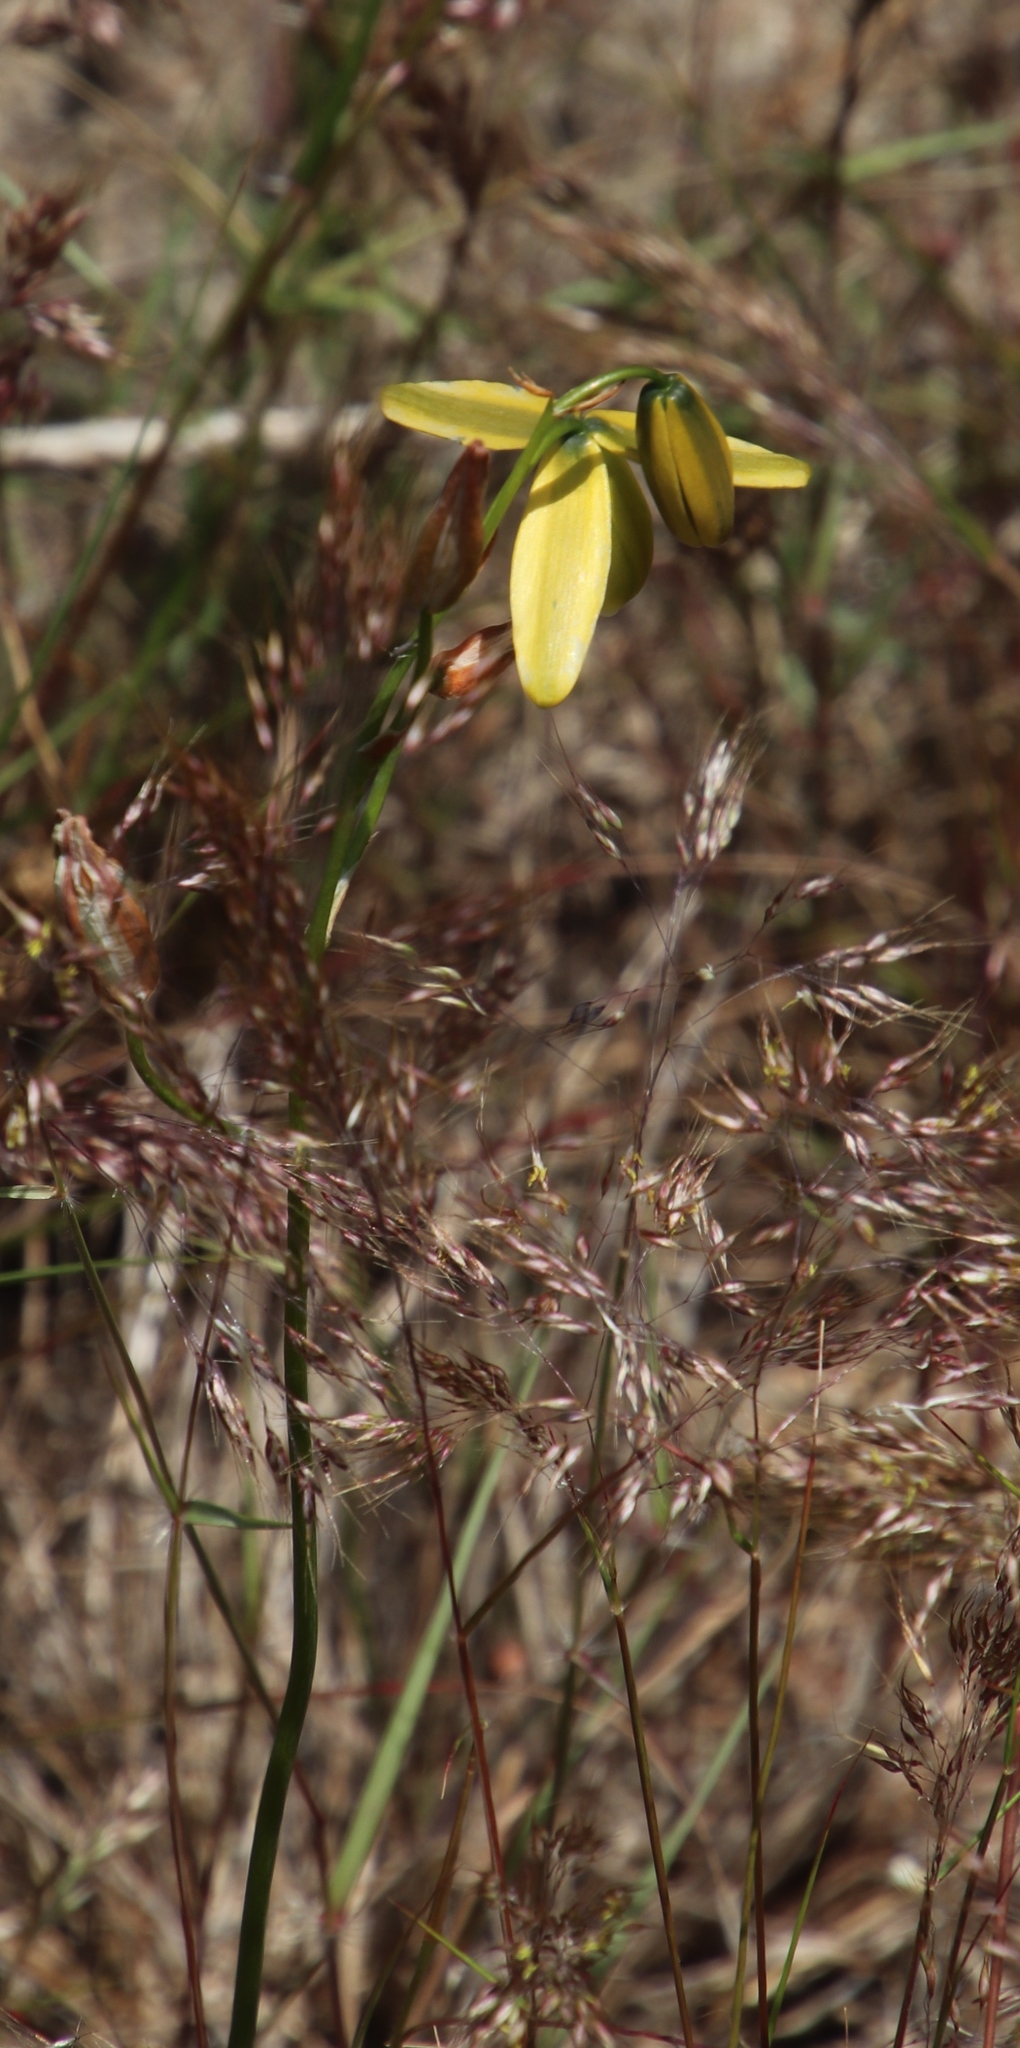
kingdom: Plantae
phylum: Tracheophyta
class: Liliopsida
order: Asparagales
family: Asparagaceae
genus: Albuca
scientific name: Albuca cooperi
